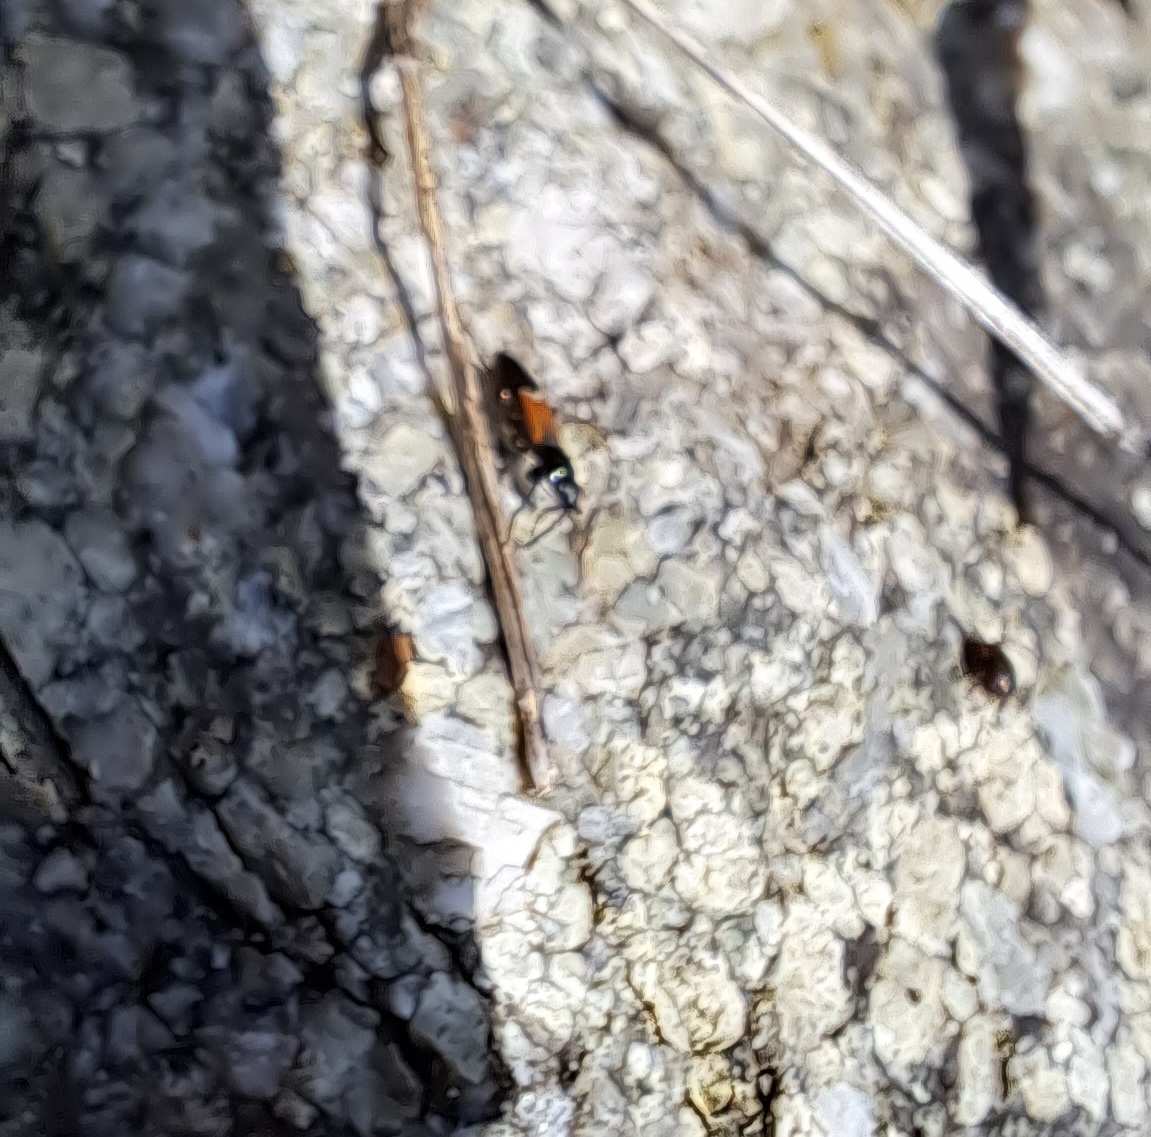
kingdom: Animalia
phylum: Arthropoda
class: Insecta
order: Hemiptera
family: Rhyparochromidae
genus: Pterotmetus
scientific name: Pterotmetus staphyliniformis
